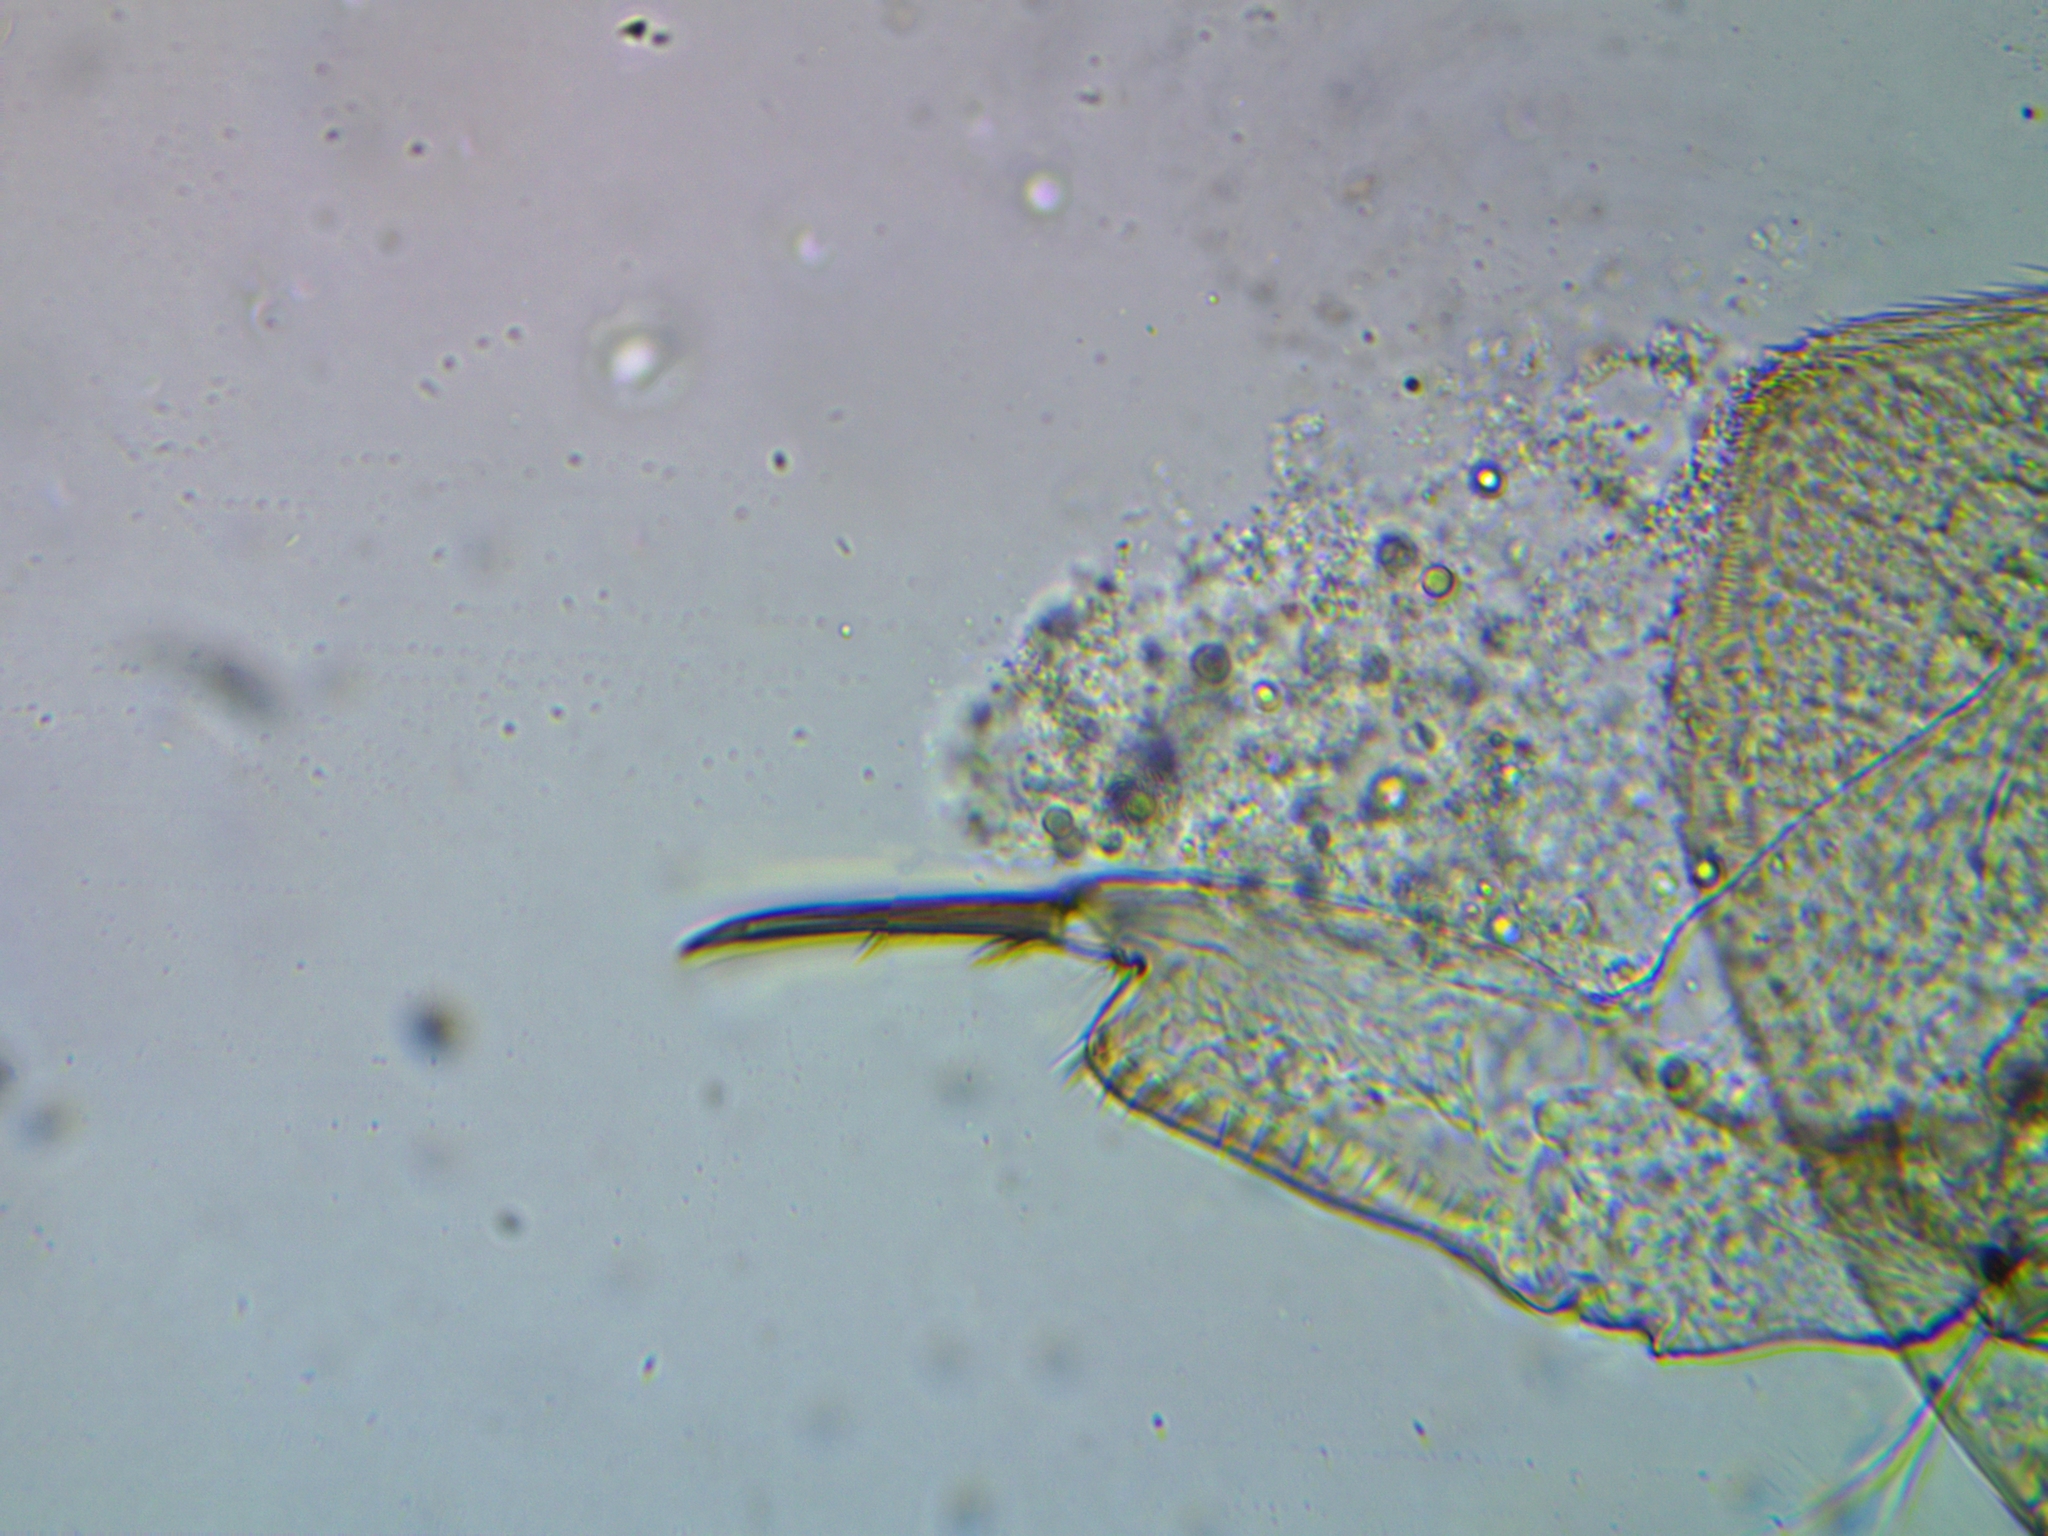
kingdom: Animalia
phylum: Arthropoda
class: Branchiopoda
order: Diplostraca
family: Chydoridae
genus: Acroperus
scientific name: Acroperus harpae
